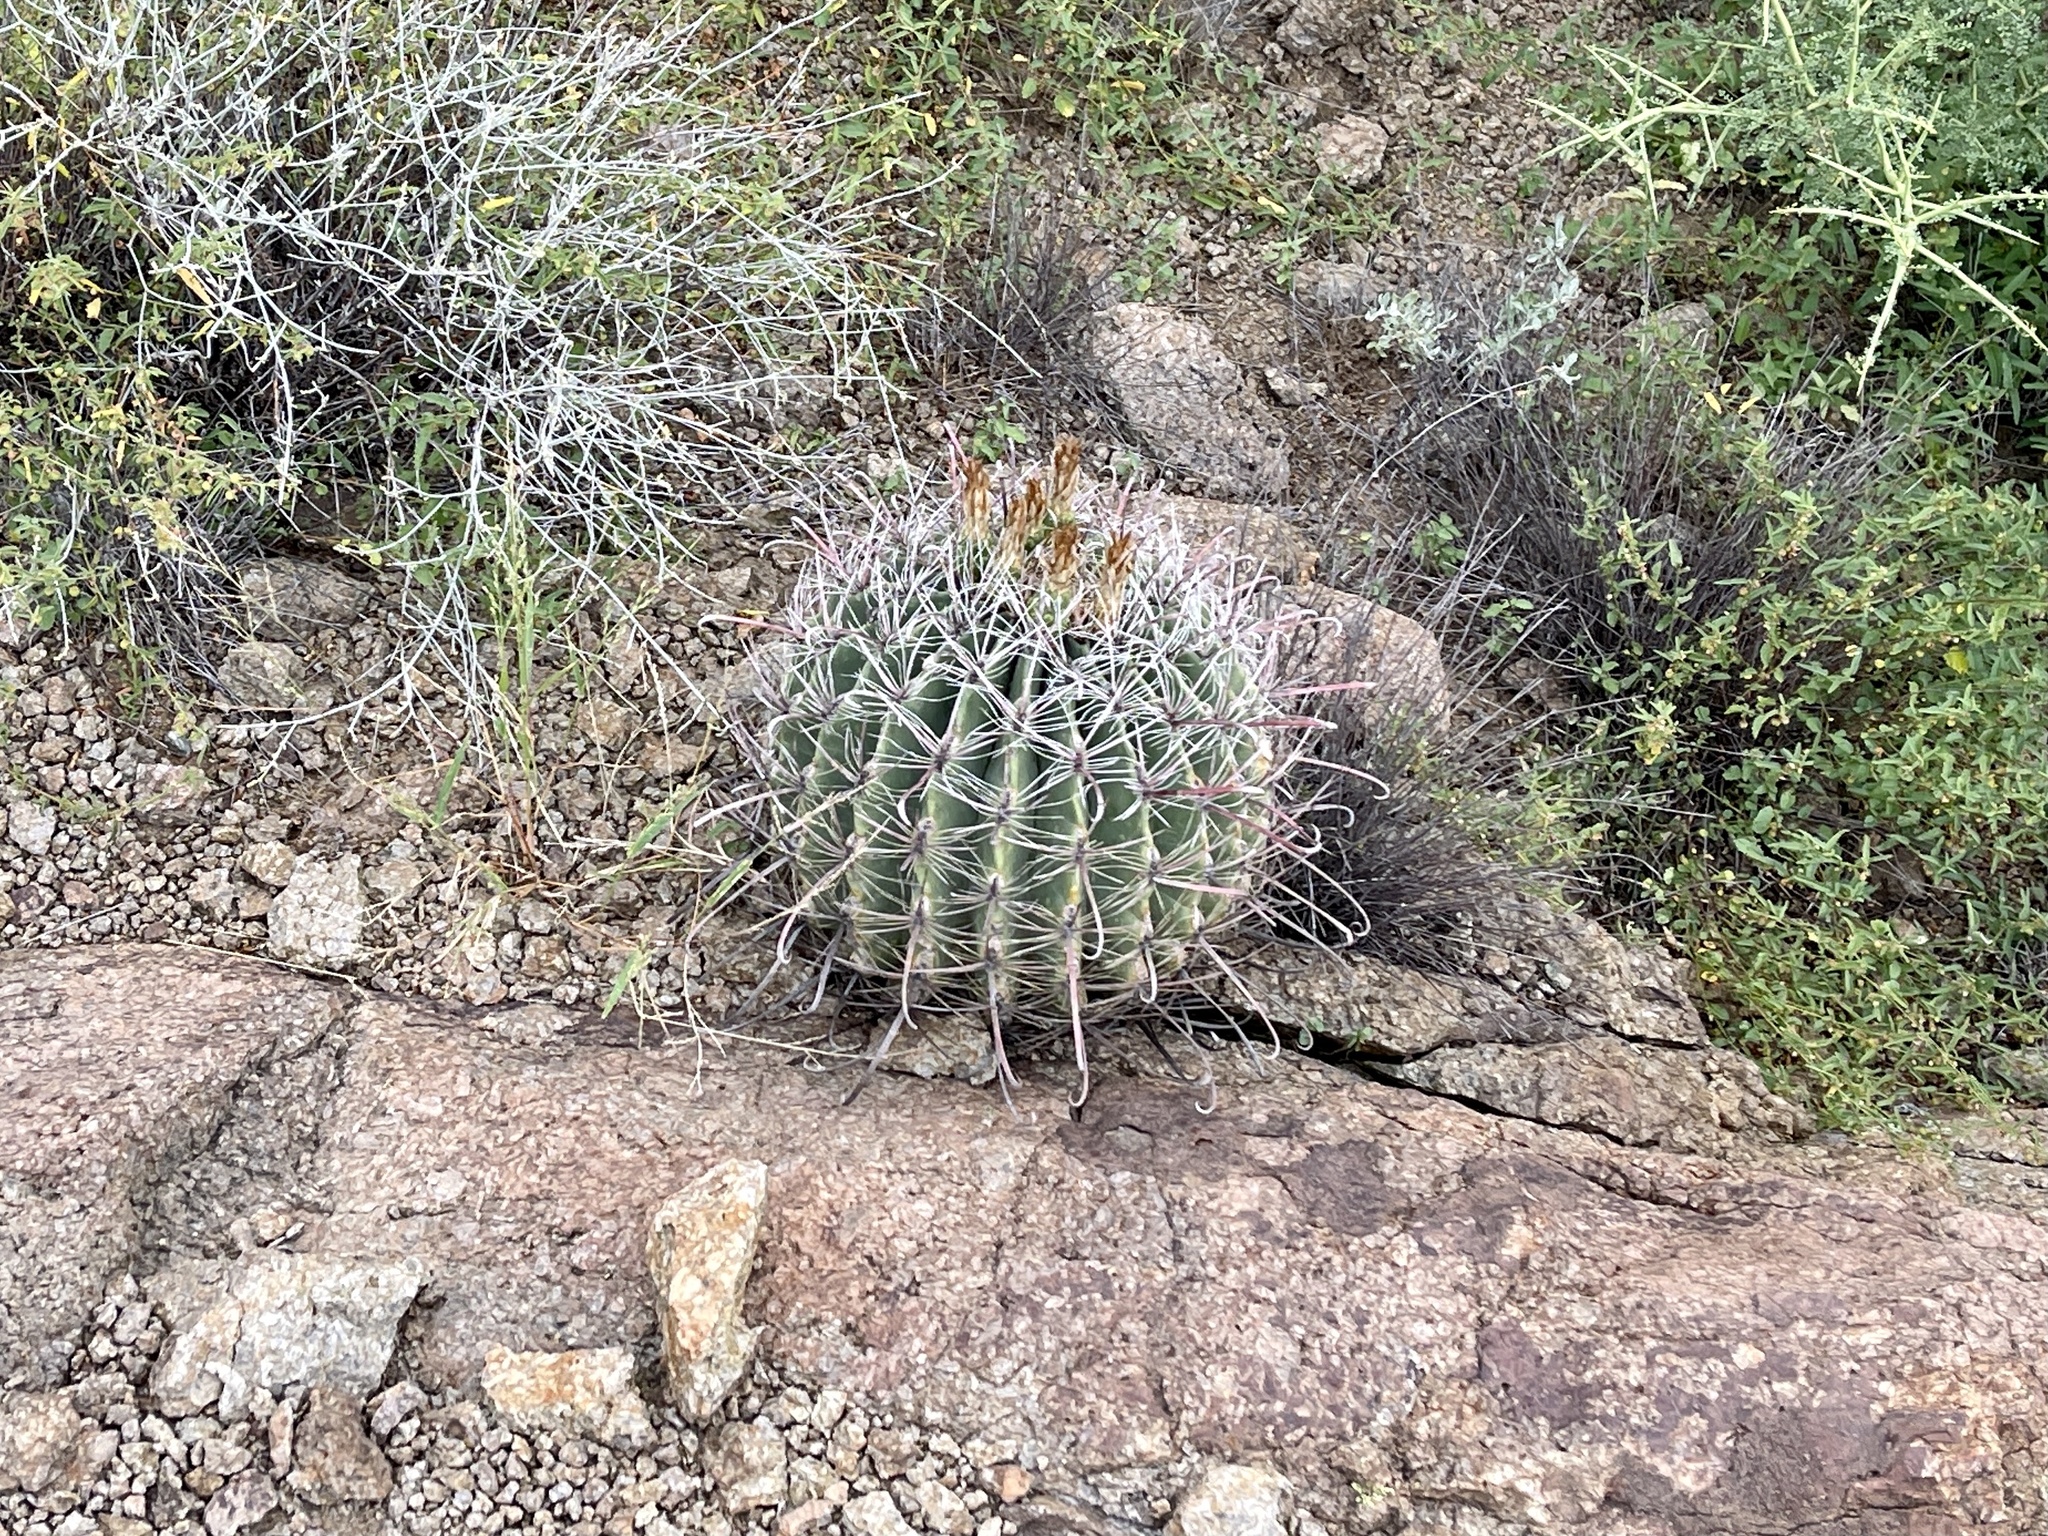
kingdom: Plantae
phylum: Tracheophyta
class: Magnoliopsida
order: Caryophyllales
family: Cactaceae
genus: Ferocactus
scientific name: Ferocactus wislizeni
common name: Candy barrel cactus
